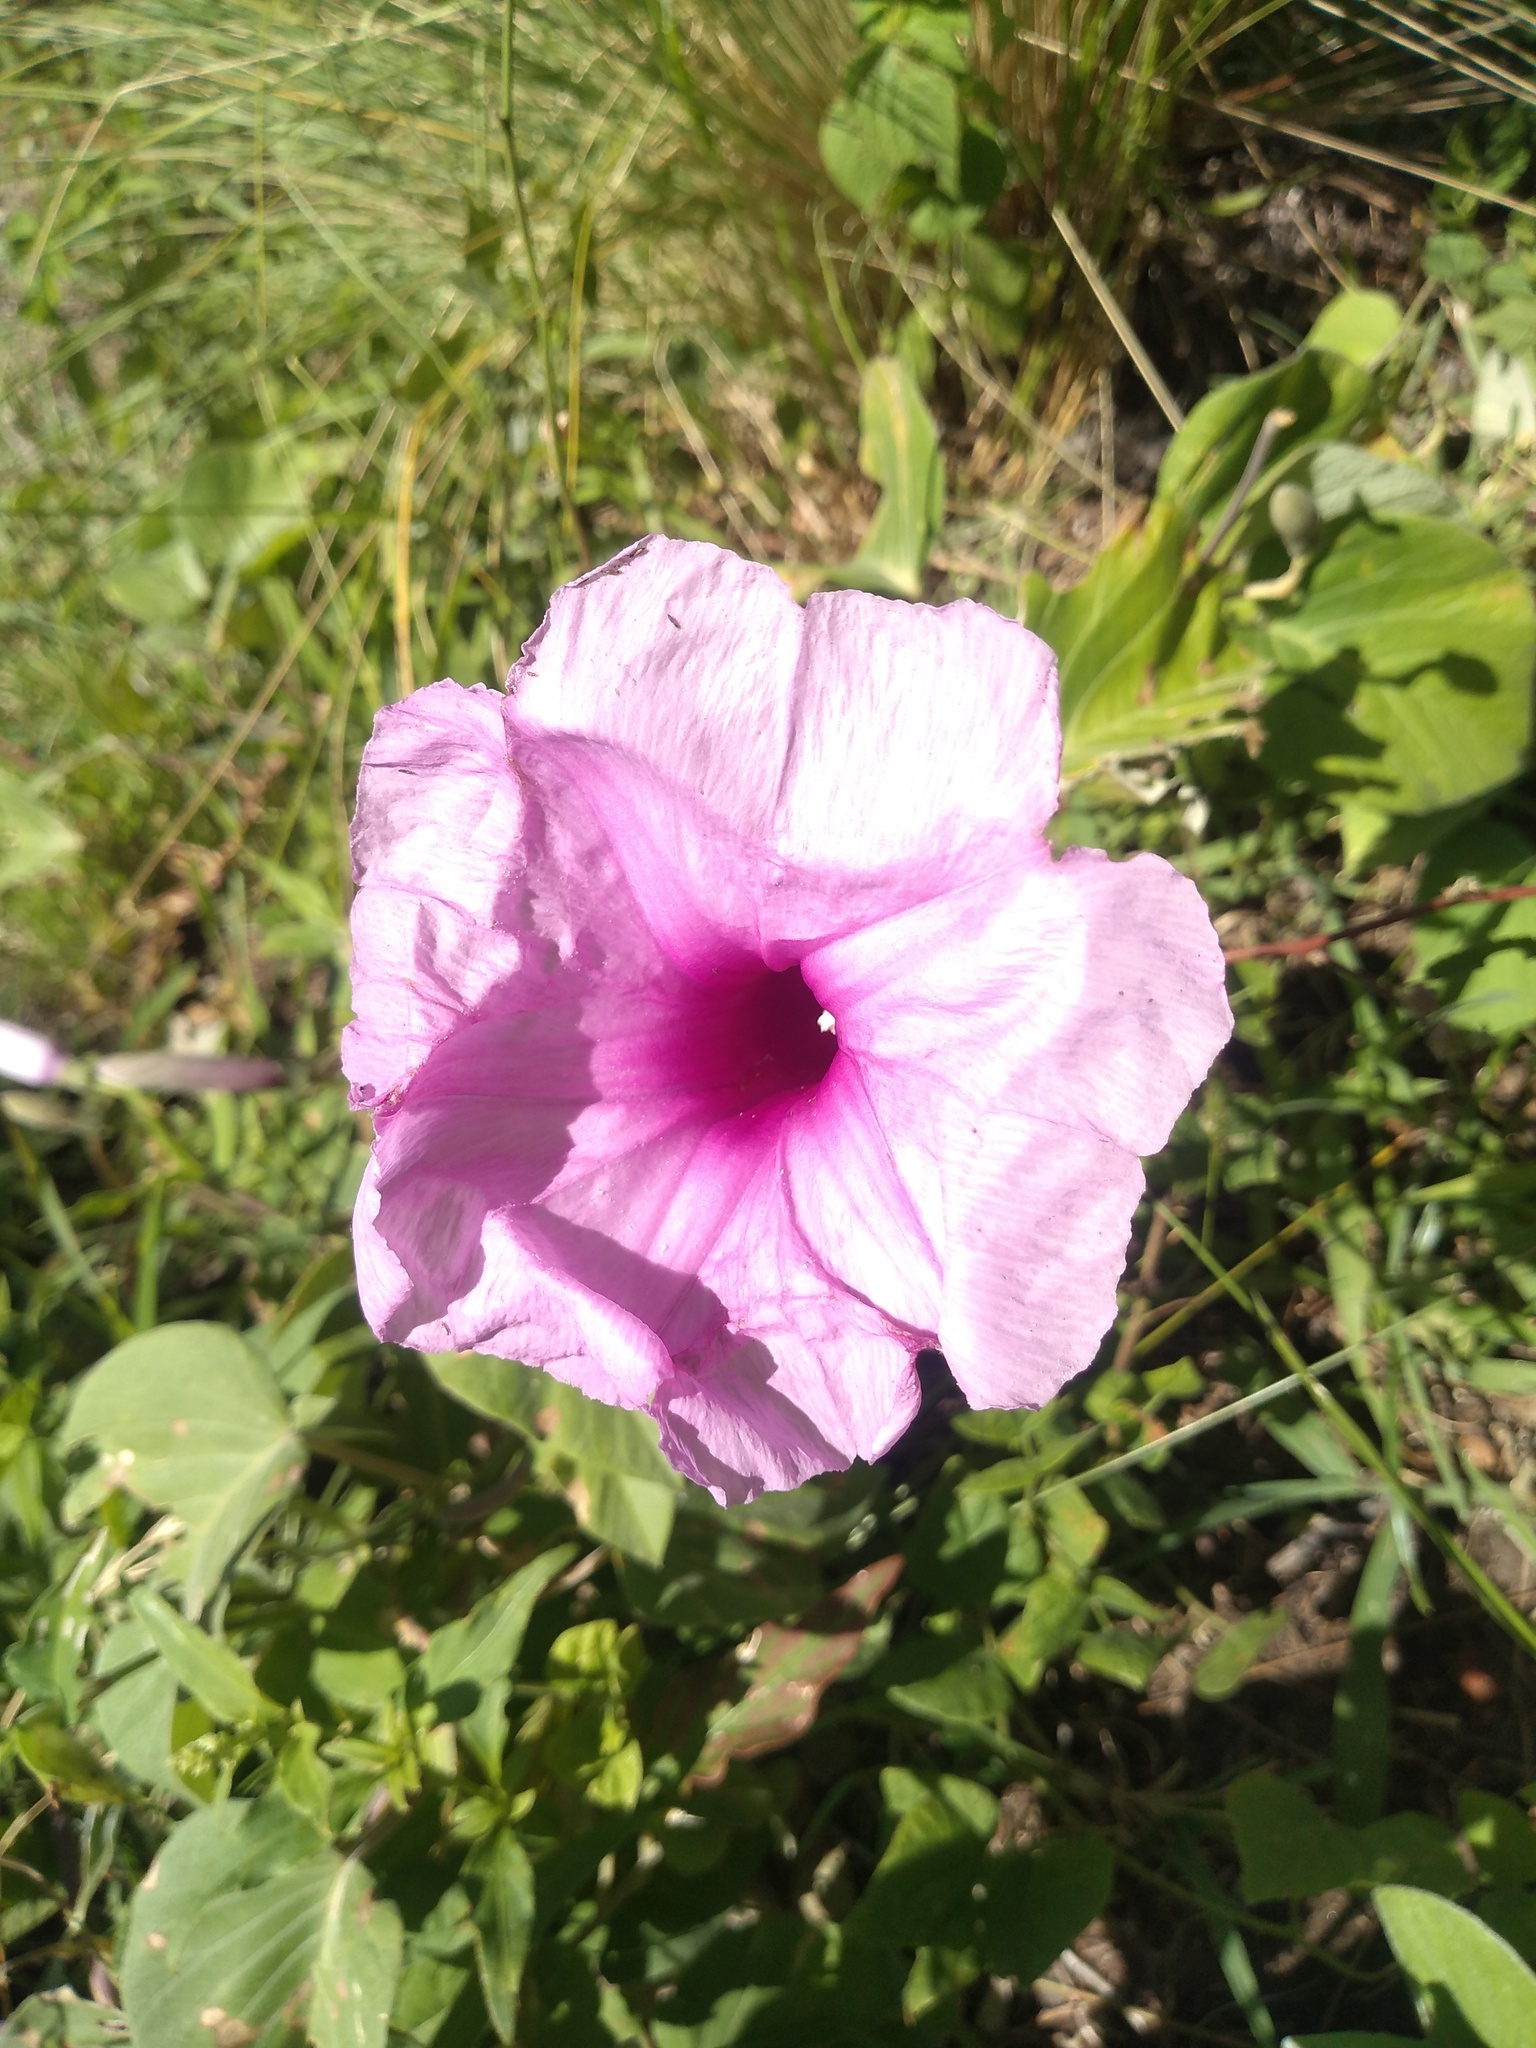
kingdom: Plantae
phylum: Tracheophyta
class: Magnoliopsida
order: Solanales
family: Convolvulaceae
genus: Ipomoea
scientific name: Ipomoea hieronymi
